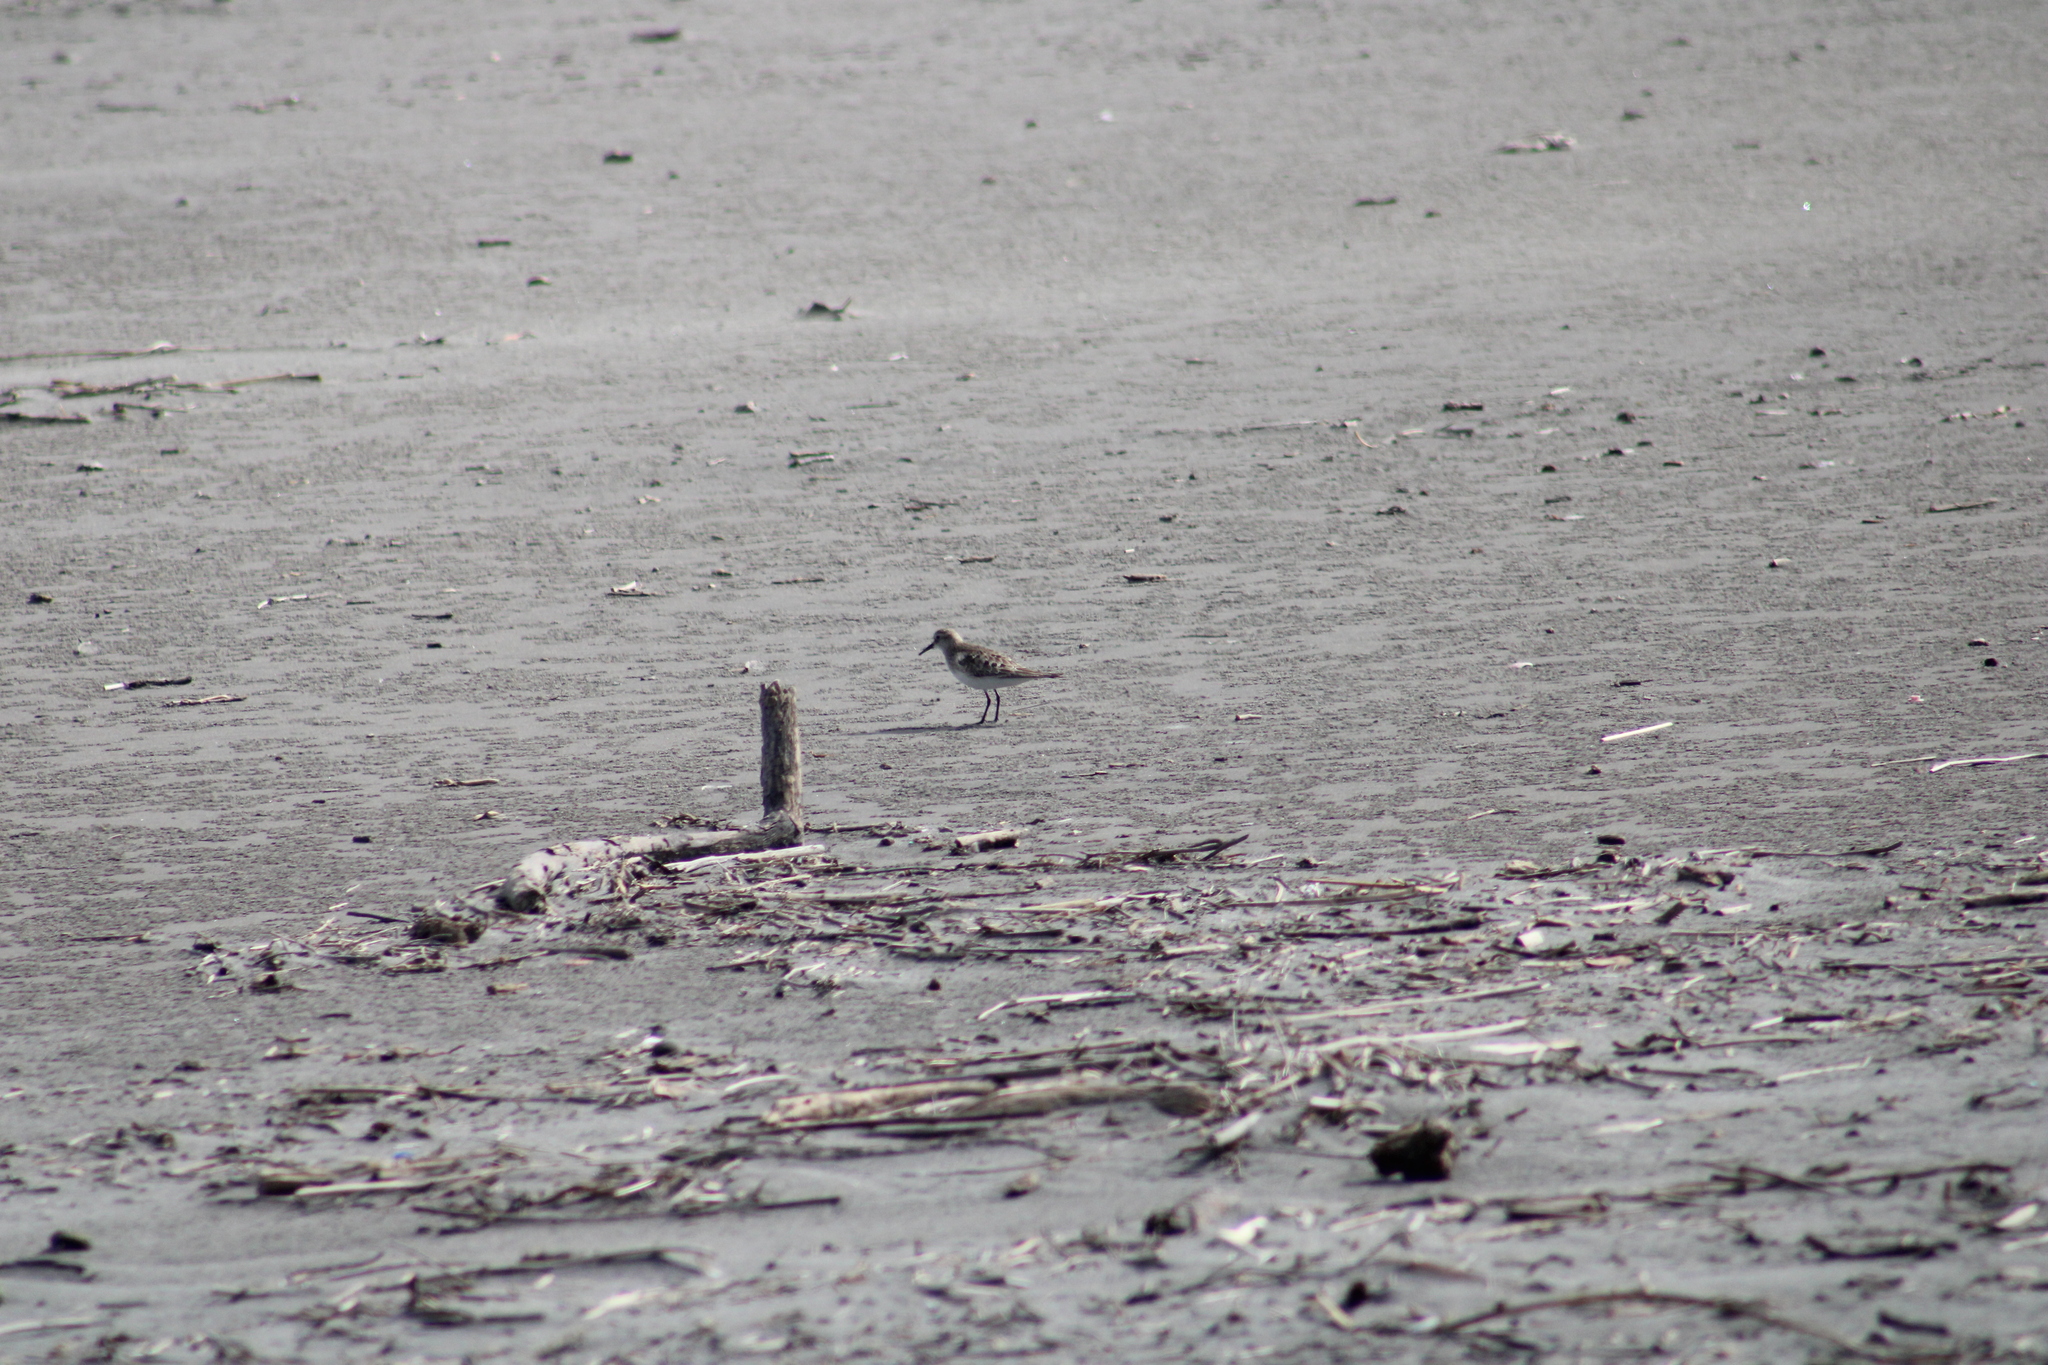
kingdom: Animalia
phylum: Chordata
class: Aves
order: Charadriiformes
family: Scolopacidae
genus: Calidris
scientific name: Calidris bairdii
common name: Baird's sandpiper
